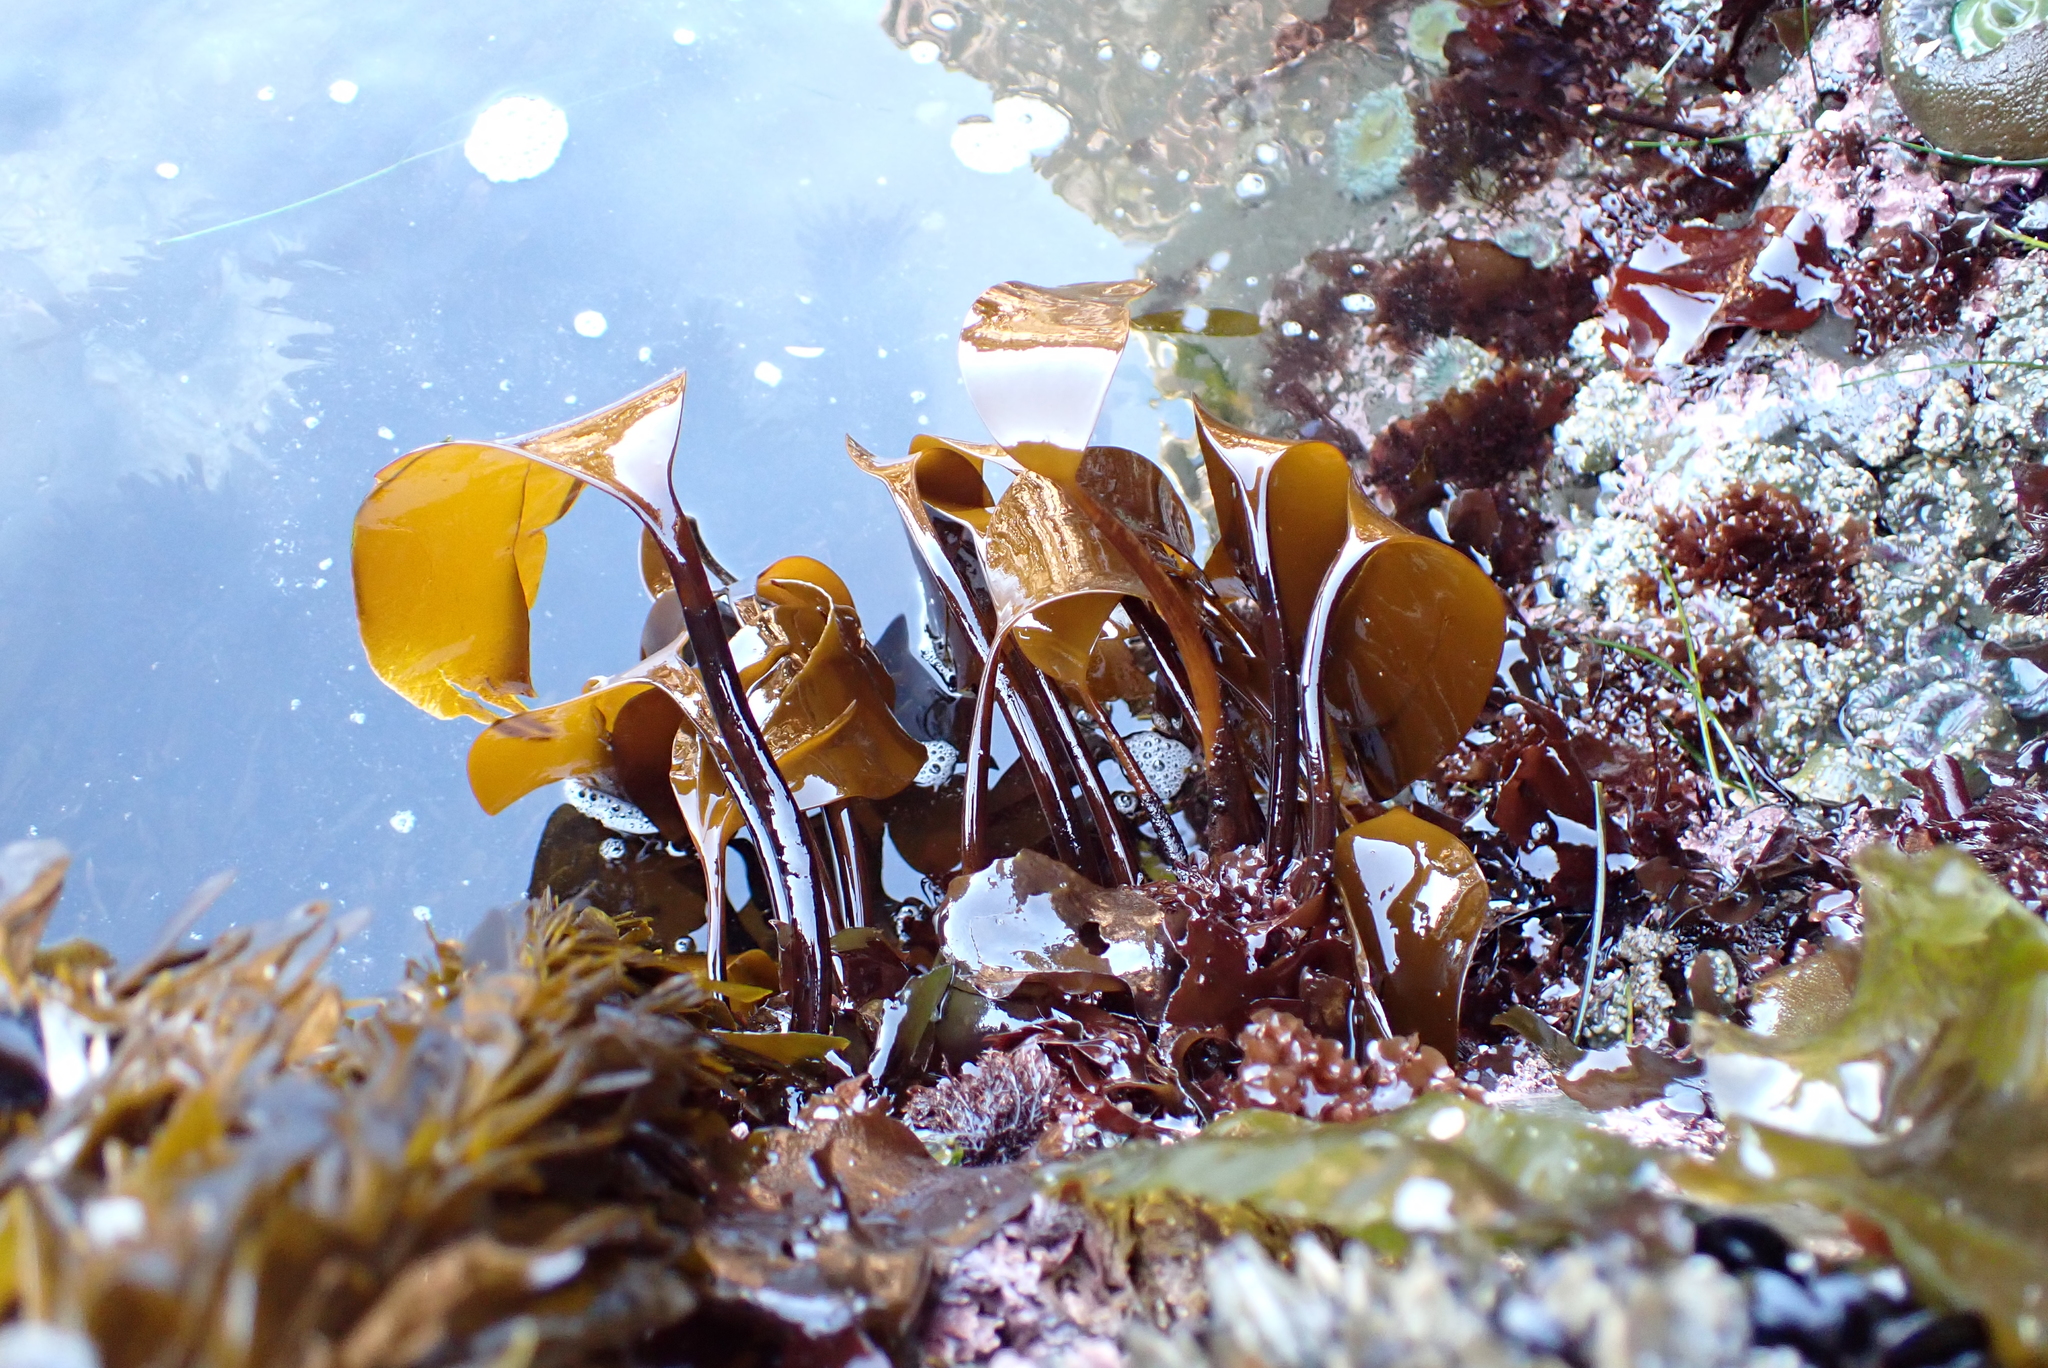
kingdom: Chromista
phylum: Ochrophyta
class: Phaeophyceae
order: Laminariales
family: Laminariaceae
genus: Laminaria
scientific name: Laminaria setchellii
